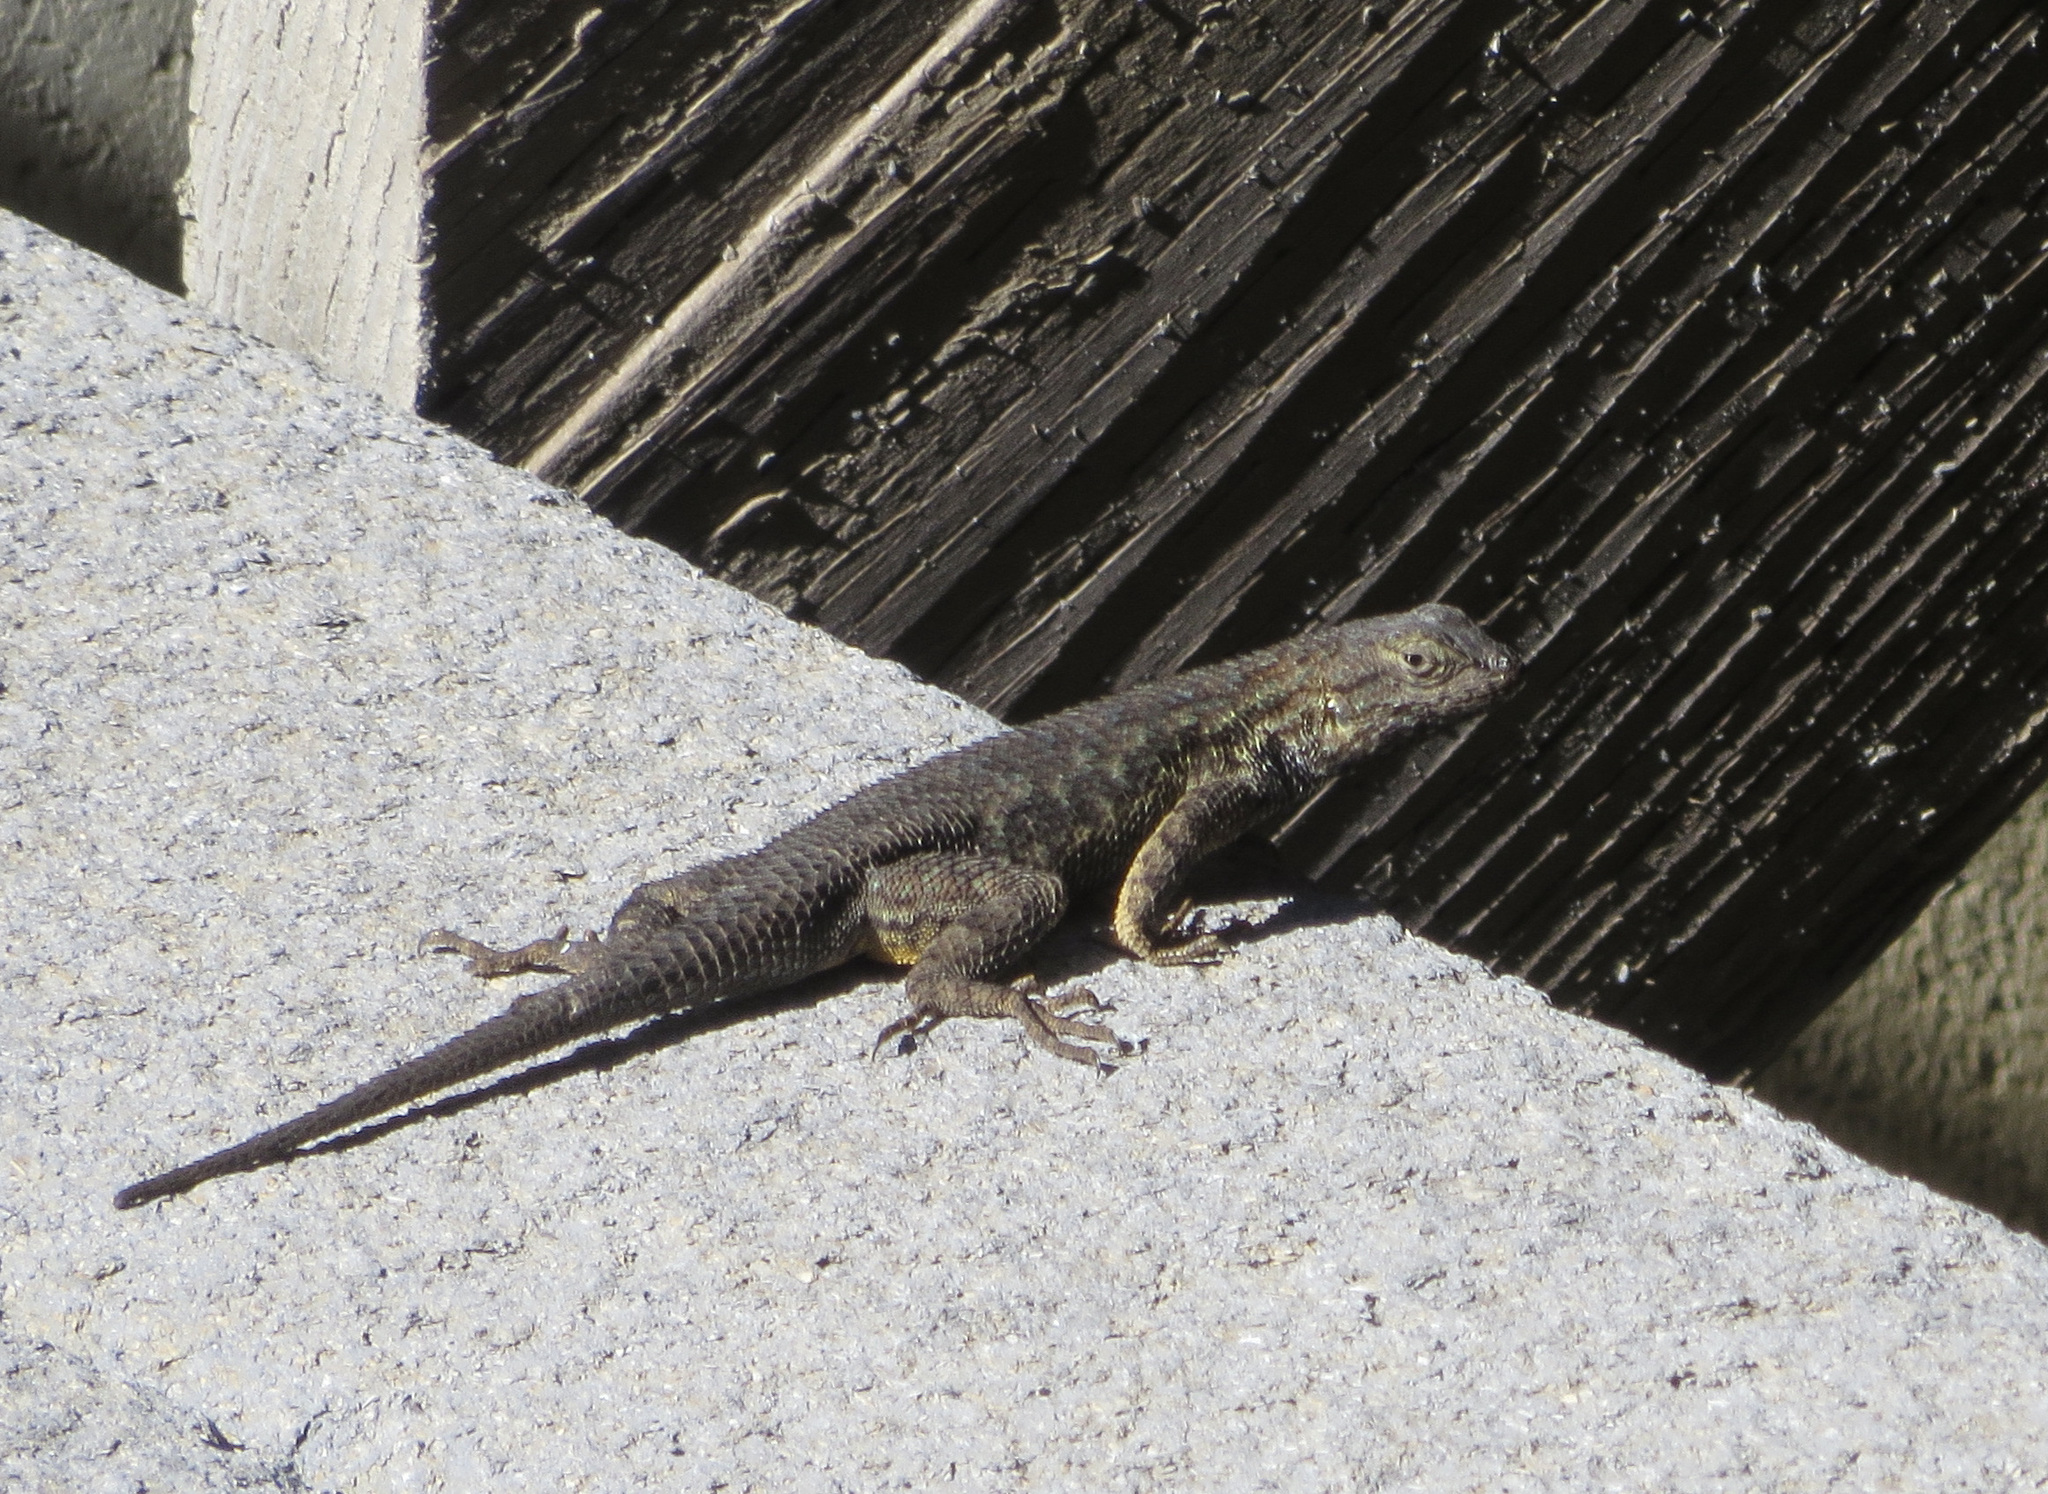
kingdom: Animalia
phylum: Chordata
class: Squamata
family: Phrynosomatidae
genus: Sceloporus
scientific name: Sceloporus occidentalis
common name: Western fence lizard
